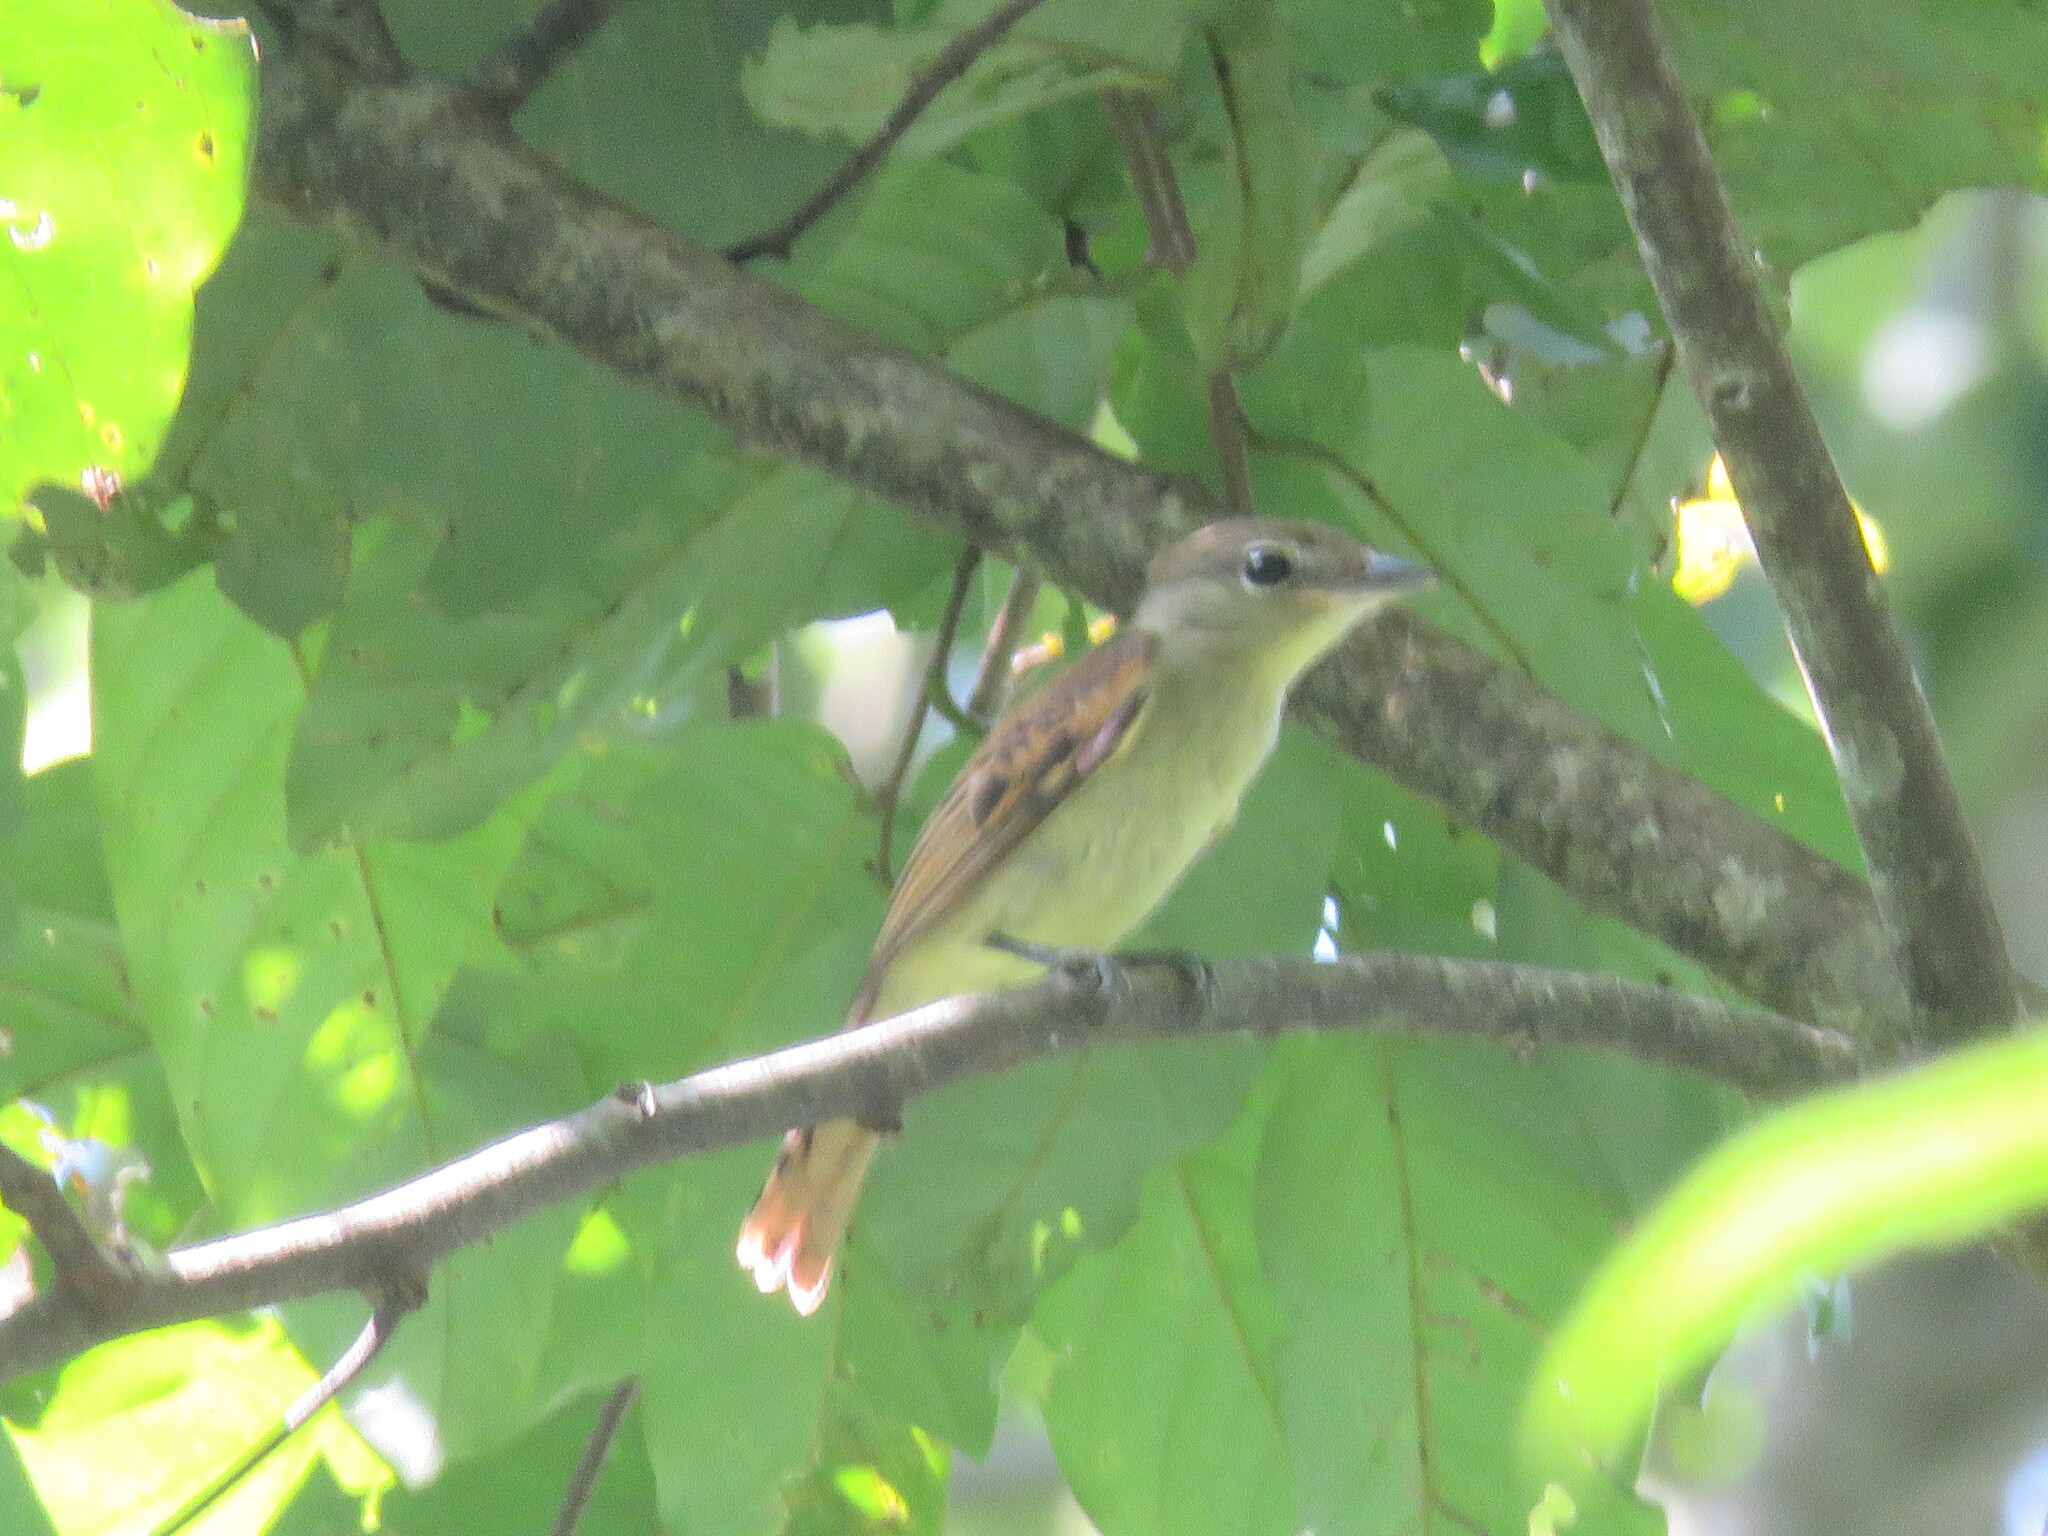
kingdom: Animalia
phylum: Chordata
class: Aves
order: Passeriformes
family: Cotingidae
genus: Pachyramphus
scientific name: Pachyramphus polychopterus
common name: White-winged becard
